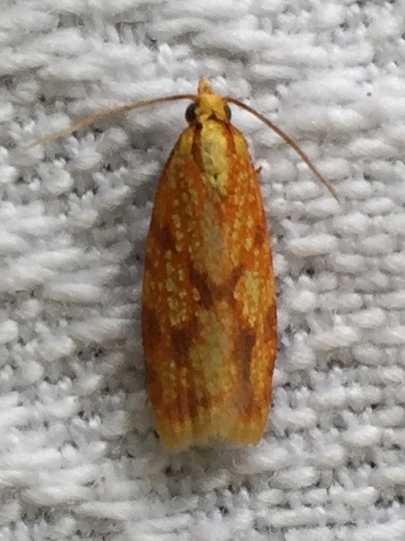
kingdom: Animalia
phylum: Arthropoda
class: Insecta
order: Lepidoptera
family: Tortricidae
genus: Sparganothis
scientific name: Sparganothis sulfureana
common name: Sparganothis fruitworm moth
